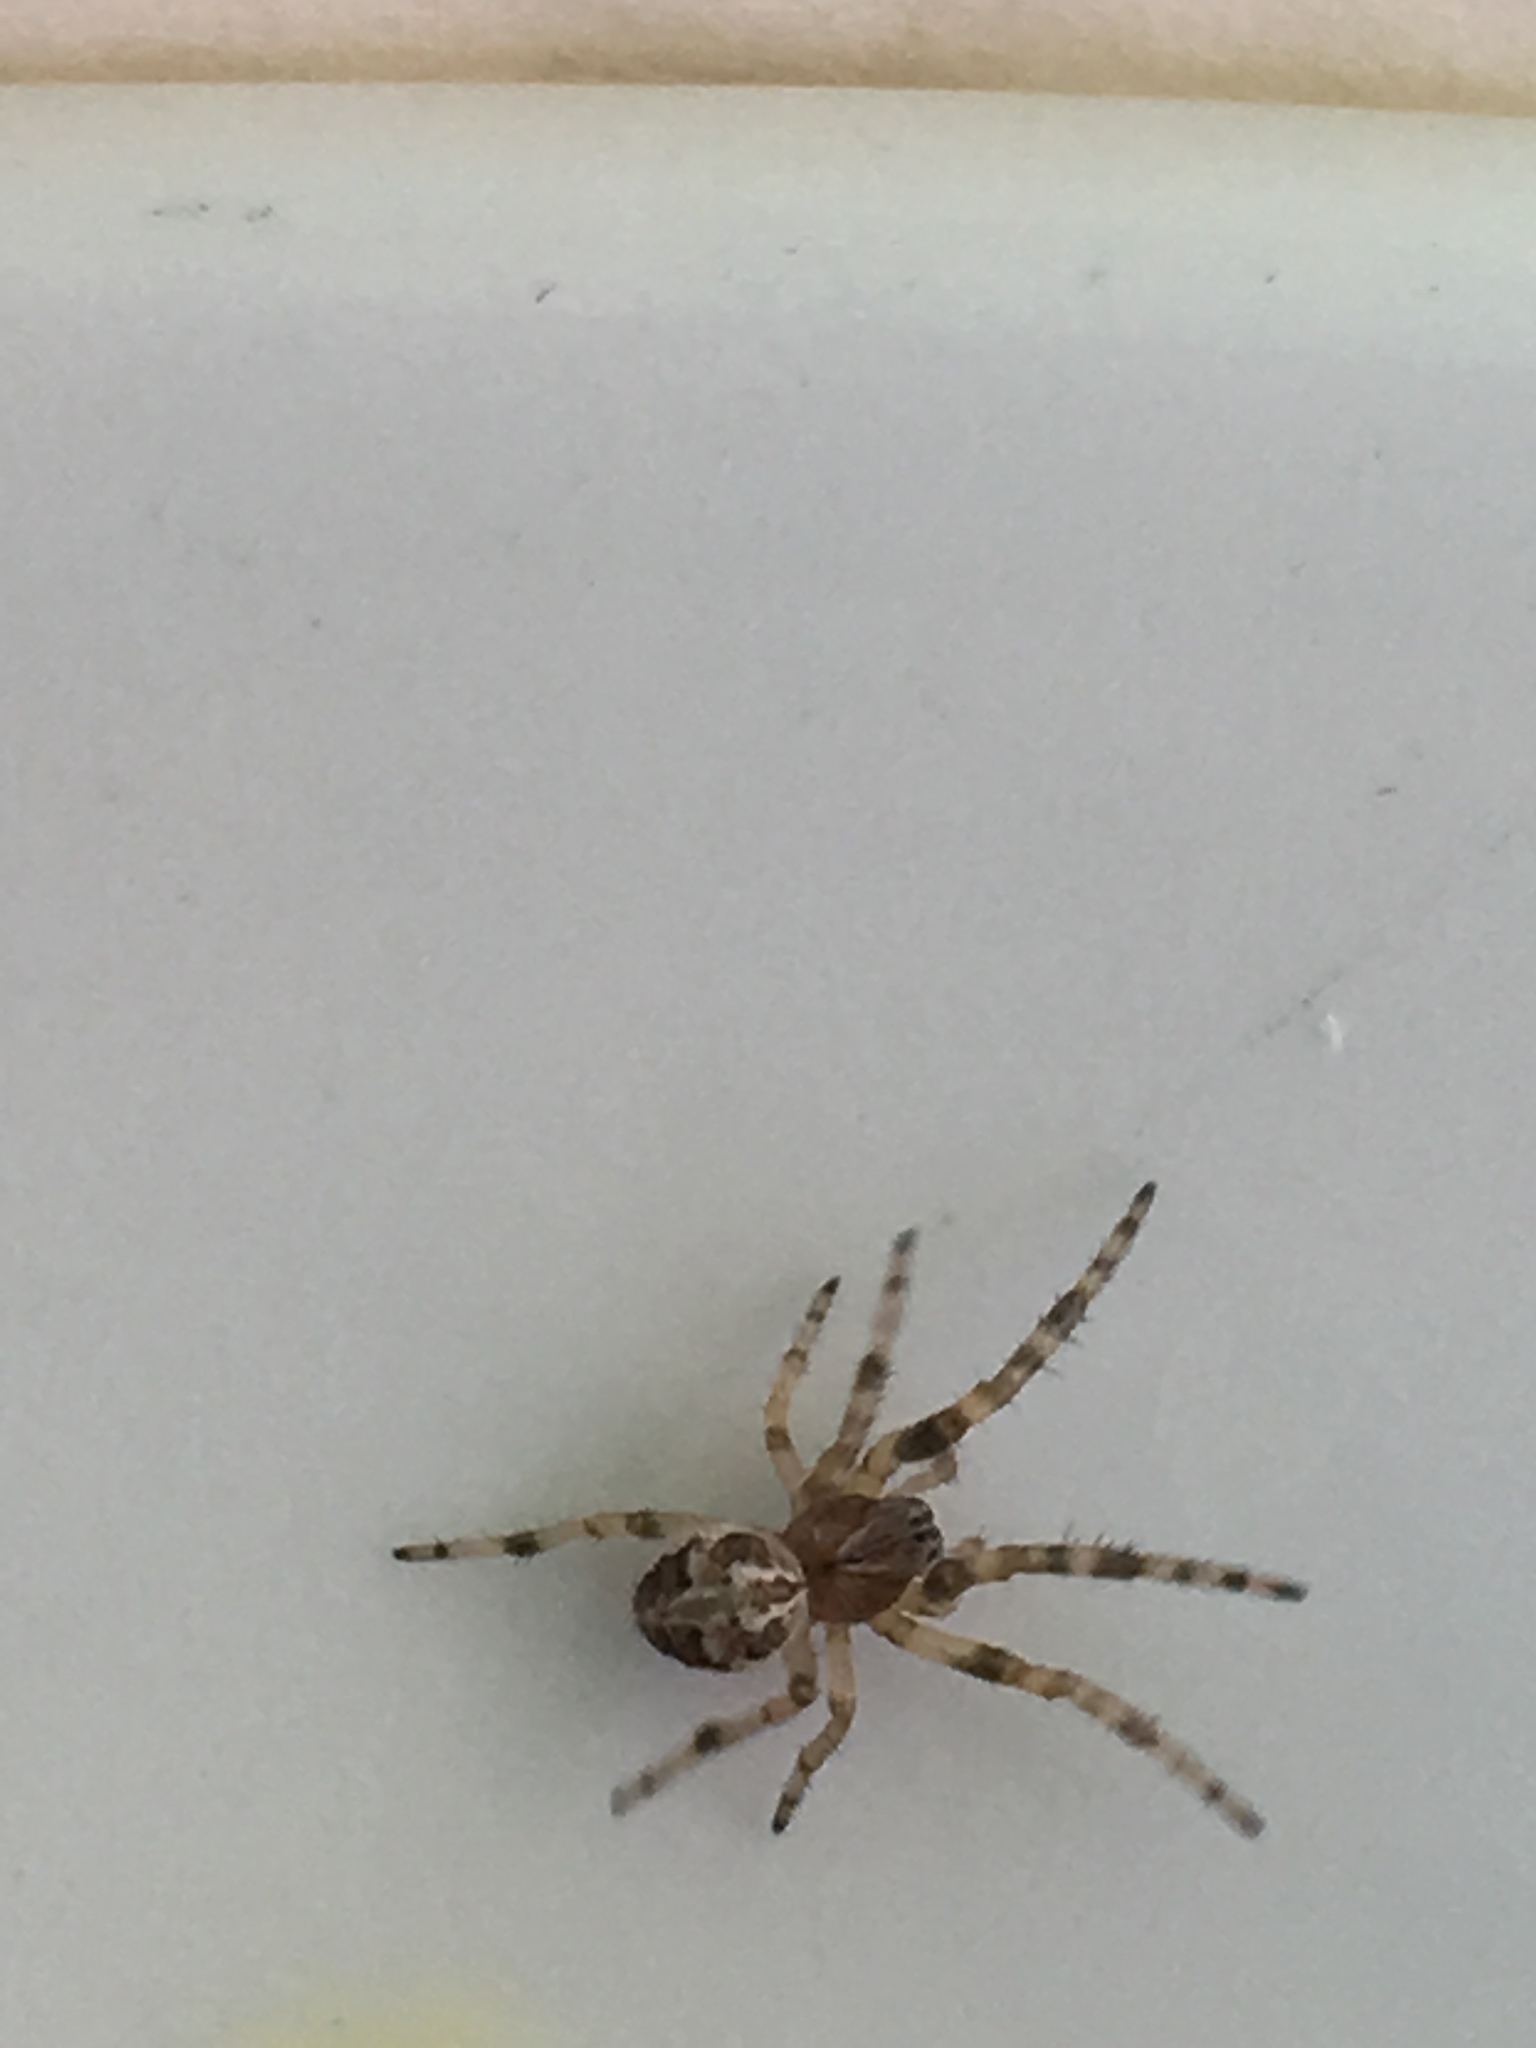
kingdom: Animalia
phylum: Arthropoda
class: Arachnida
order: Araneae
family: Araneidae
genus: Larinioides
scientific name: Larinioides cornutus
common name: Furrow orbweaver
